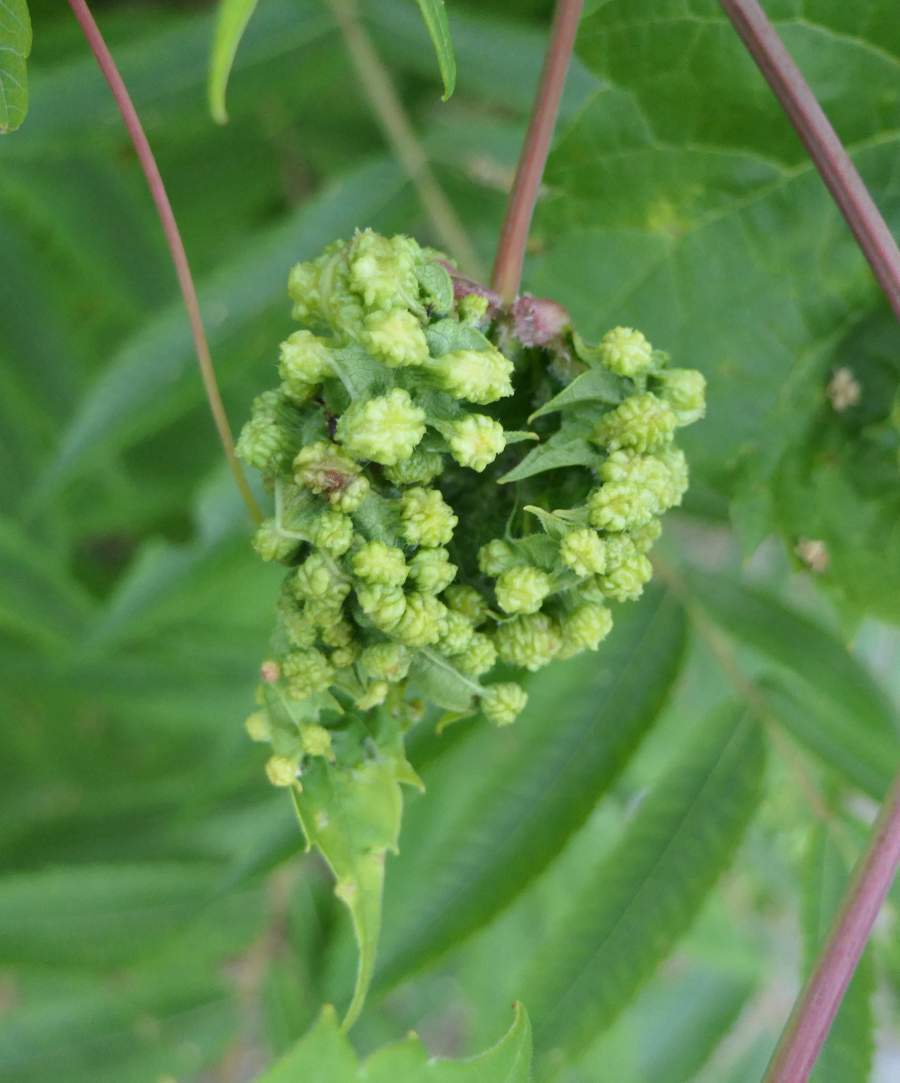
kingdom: Animalia
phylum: Arthropoda
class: Insecta
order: Hemiptera
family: Phylloxeridae
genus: Daktulosphaira
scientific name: Daktulosphaira vitifoliae
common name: Grape phylloxera
